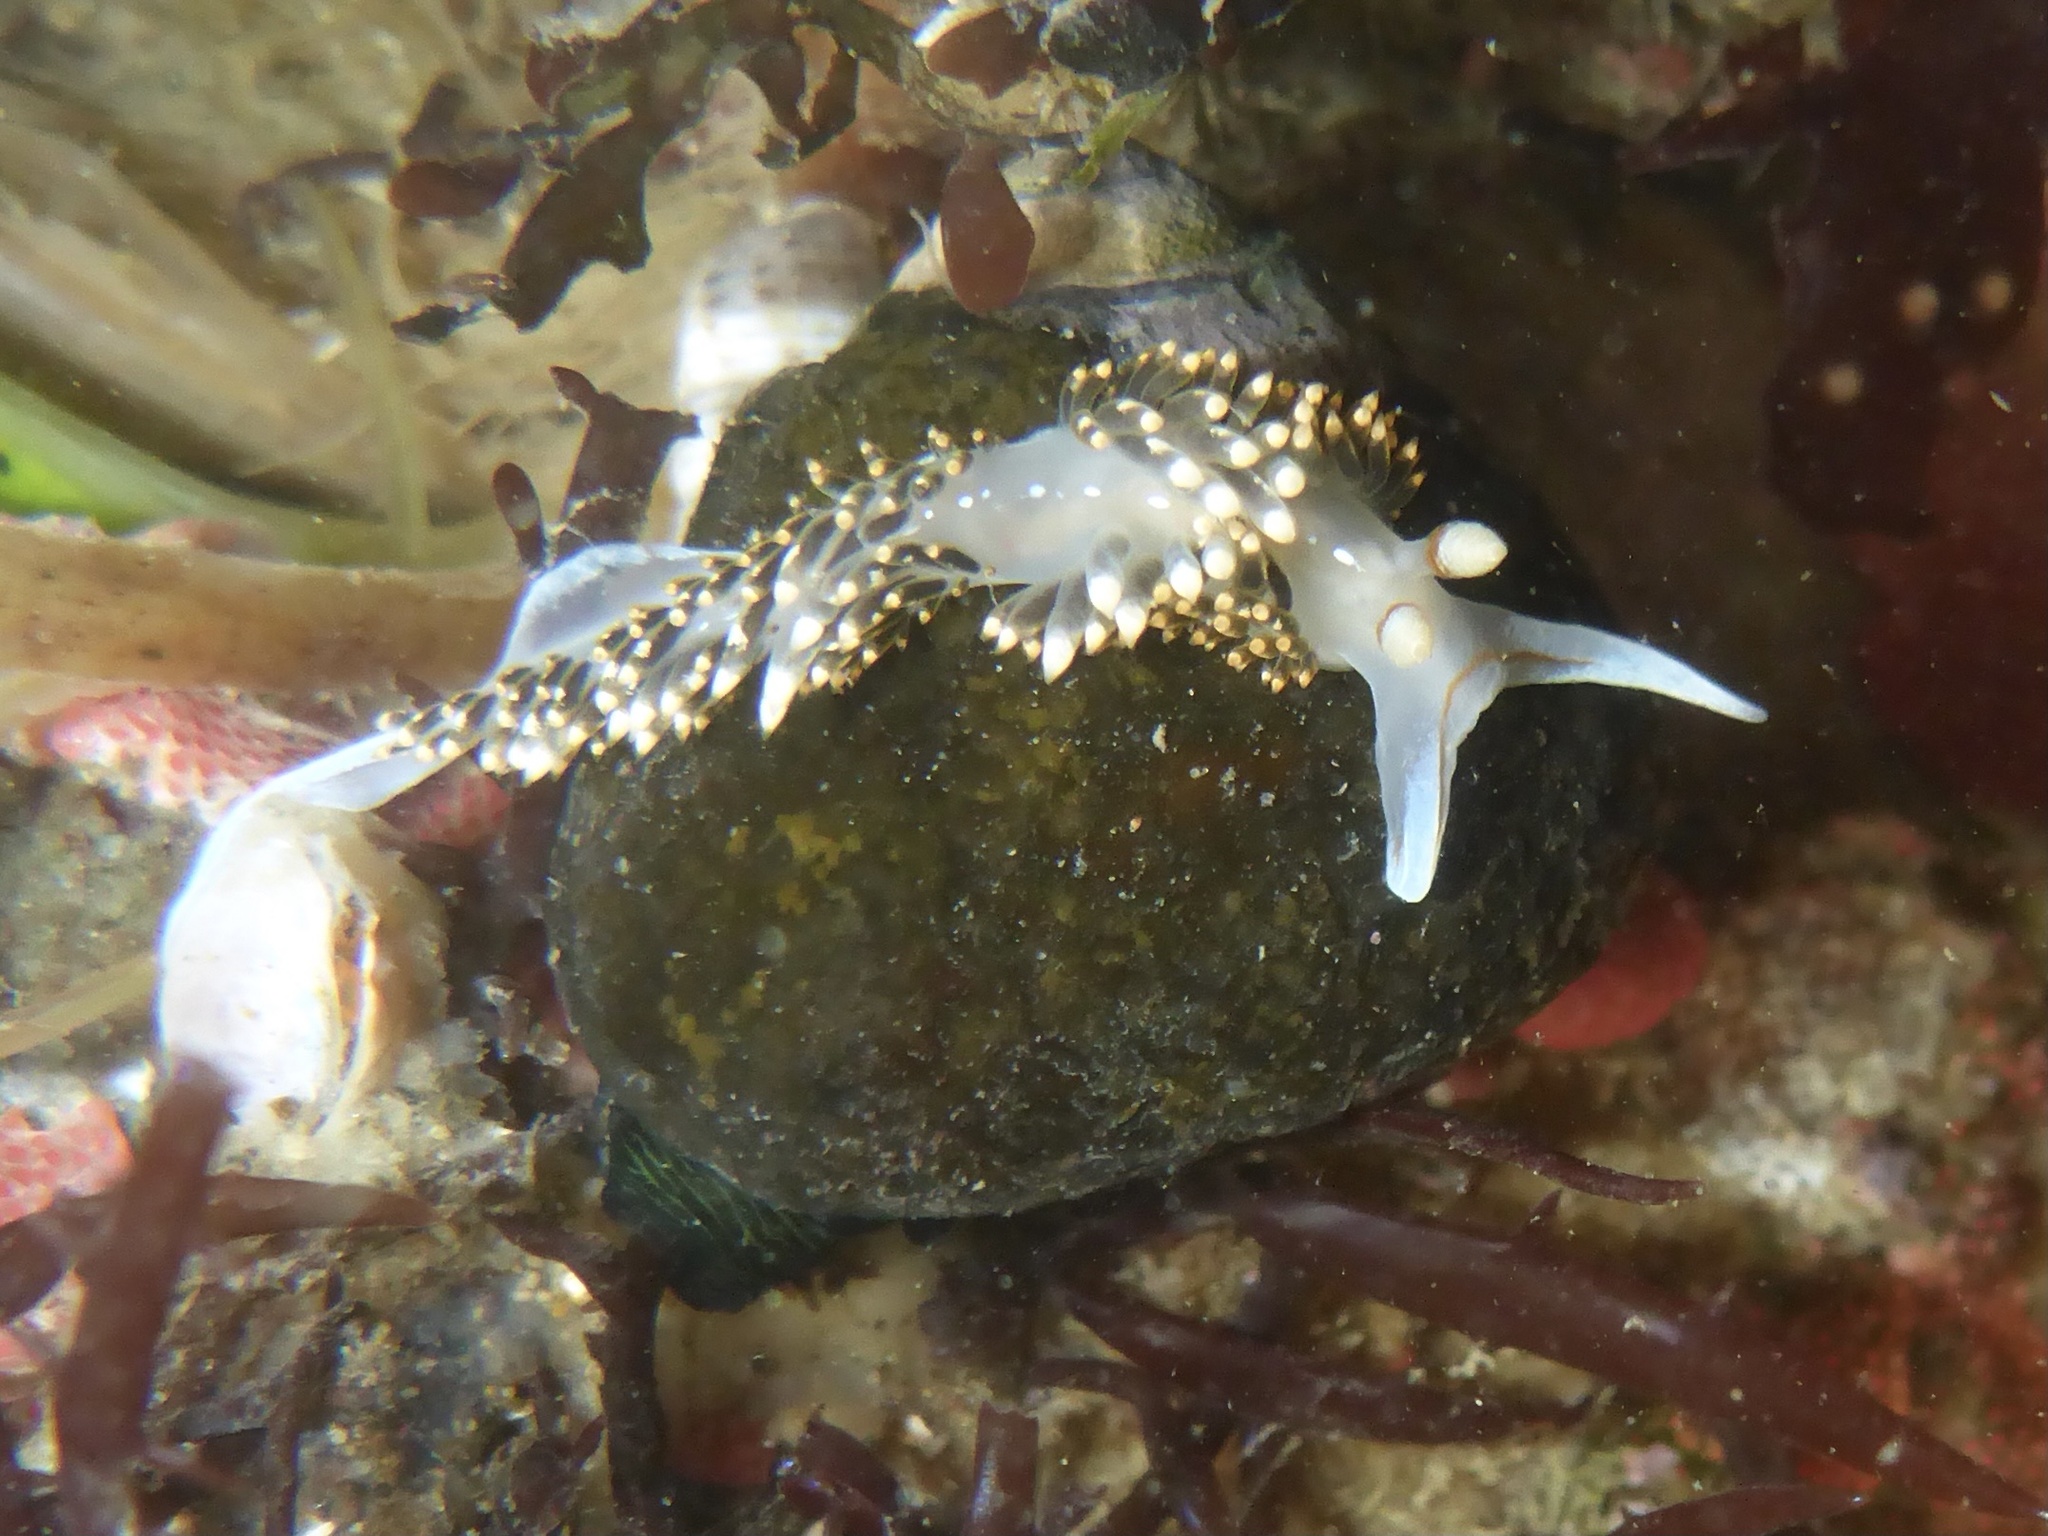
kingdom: Animalia
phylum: Mollusca
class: Gastropoda
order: Nudibranchia
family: Facelinidae
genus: Phidiana
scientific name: Phidiana hiltoni
